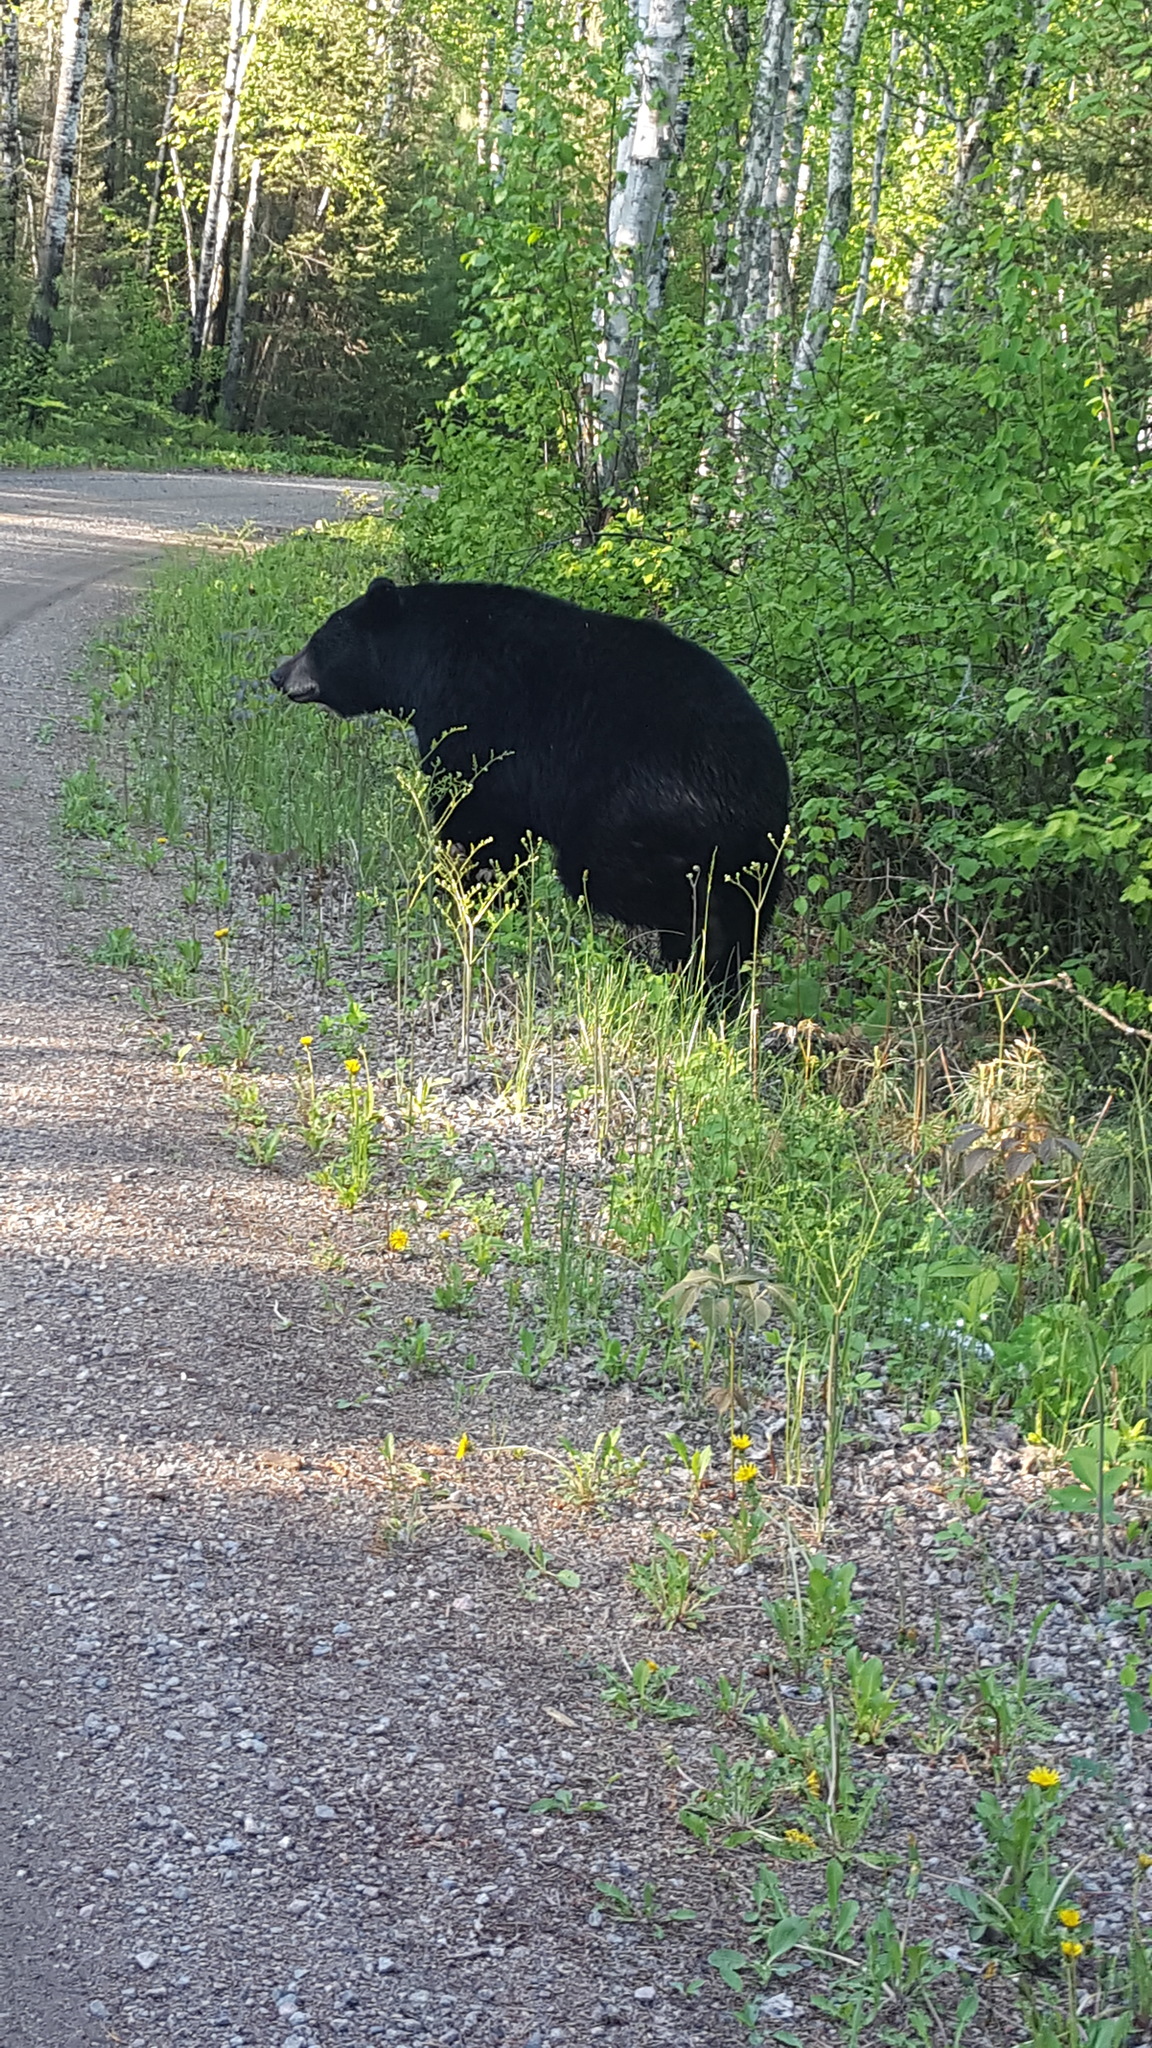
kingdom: Animalia
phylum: Chordata
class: Mammalia
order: Carnivora
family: Ursidae
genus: Ursus
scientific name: Ursus americanus
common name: American black bear
